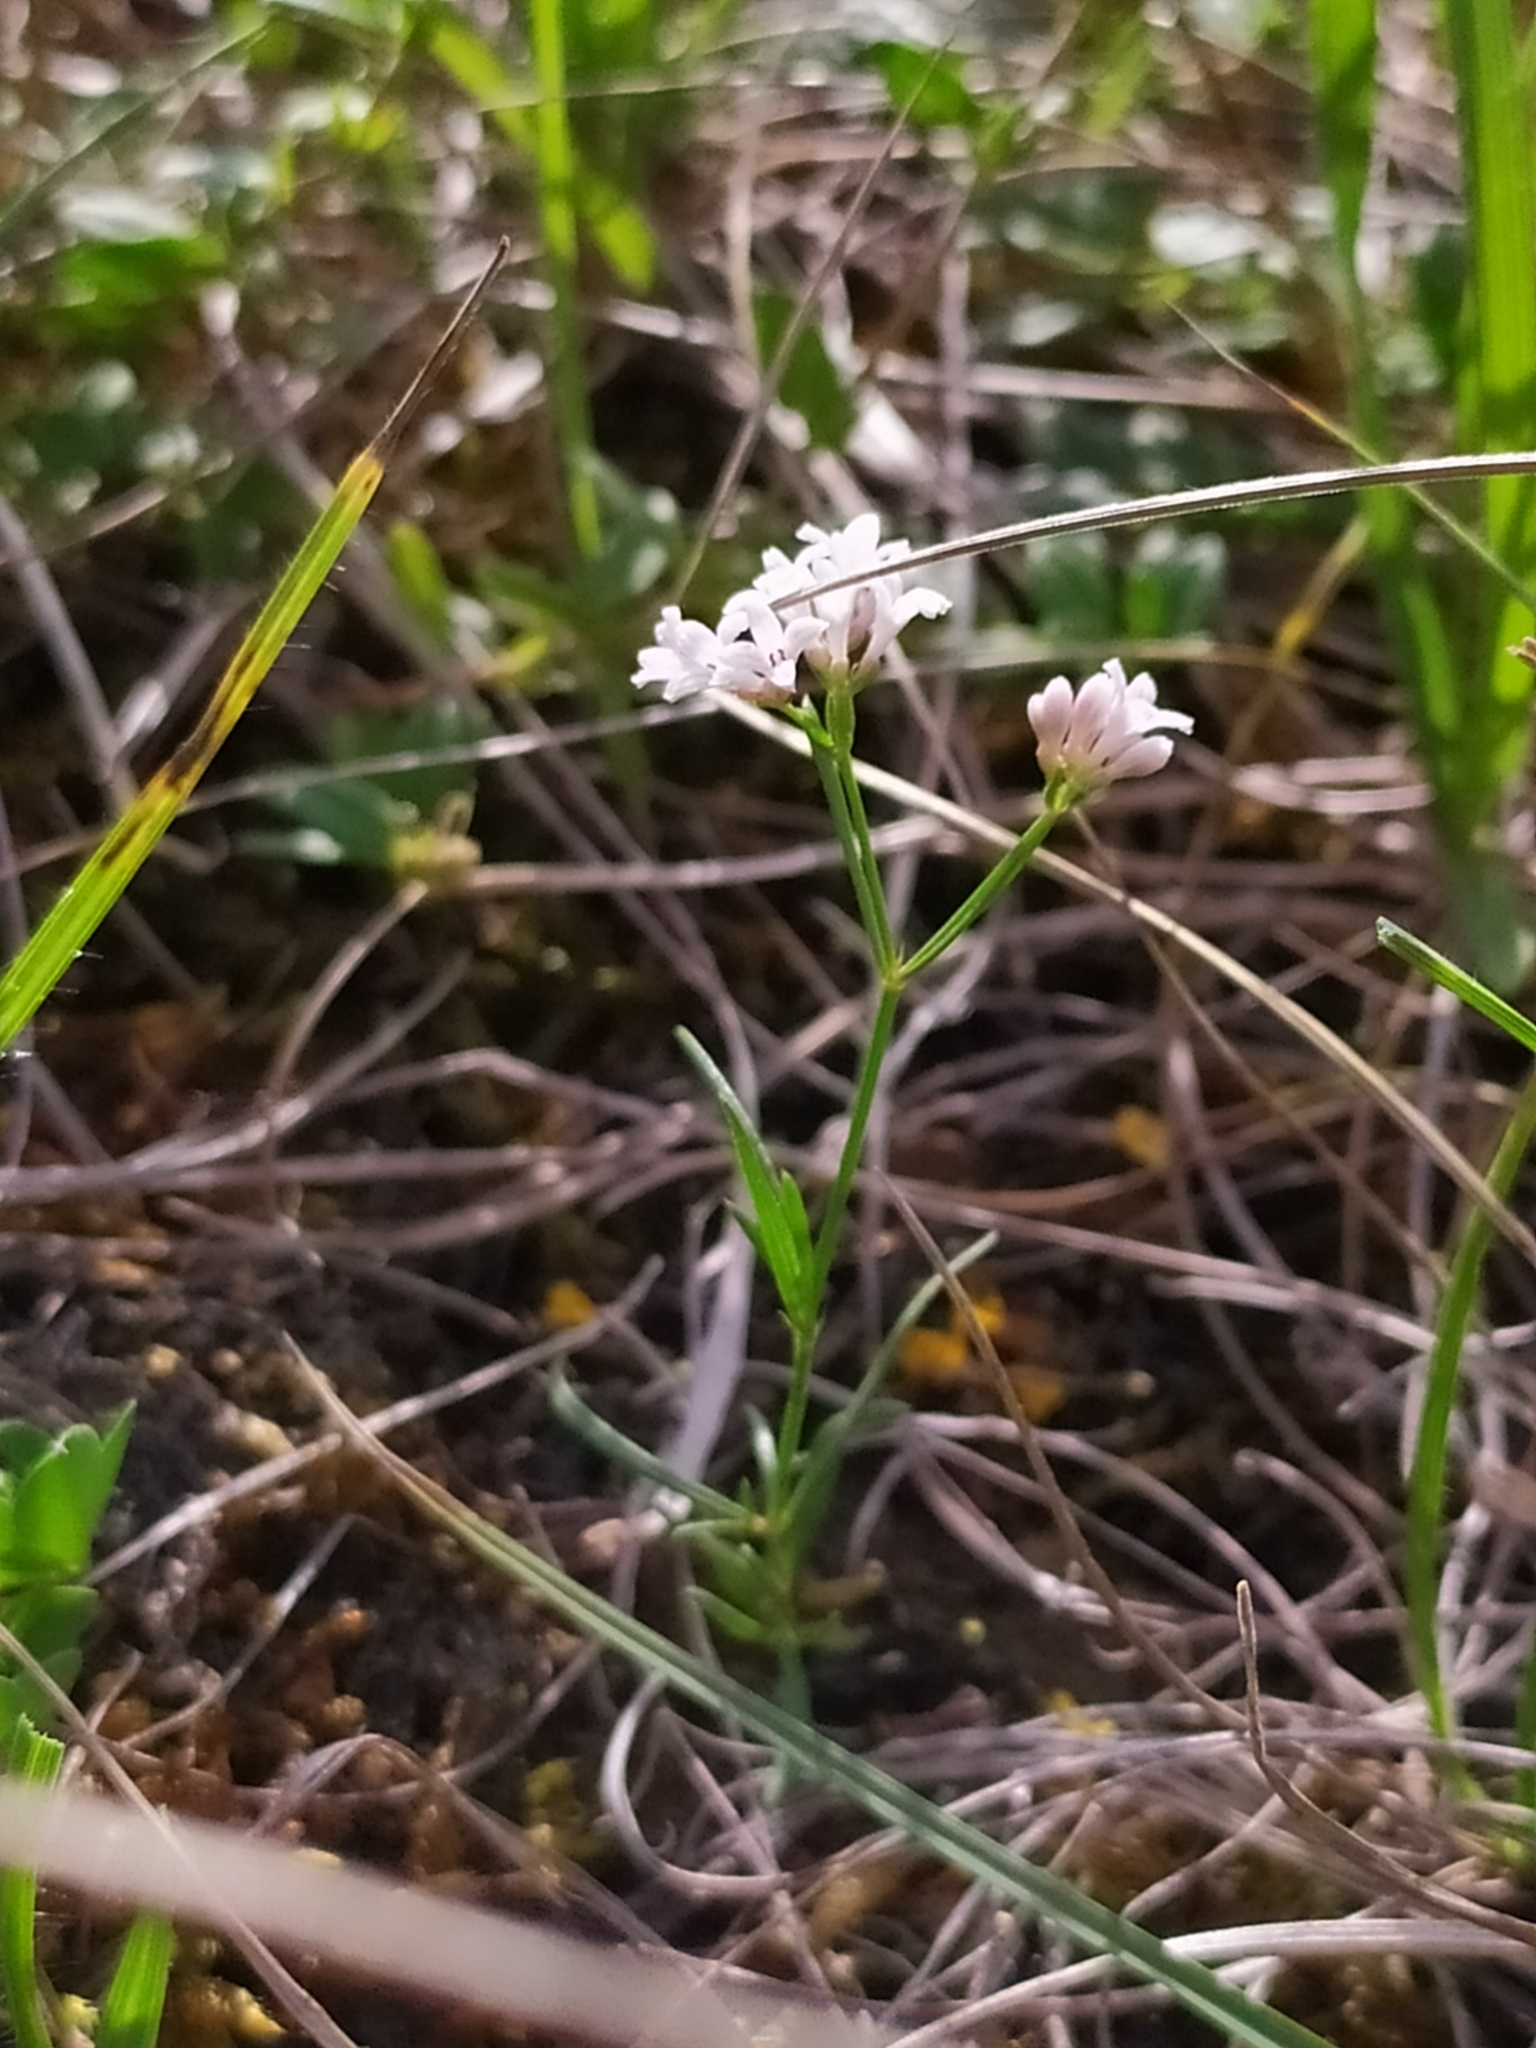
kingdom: Plantae
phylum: Tracheophyta
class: Magnoliopsida
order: Gentianales
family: Rubiaceae
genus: Cynanchica
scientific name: Cynanchica pyrenaica
